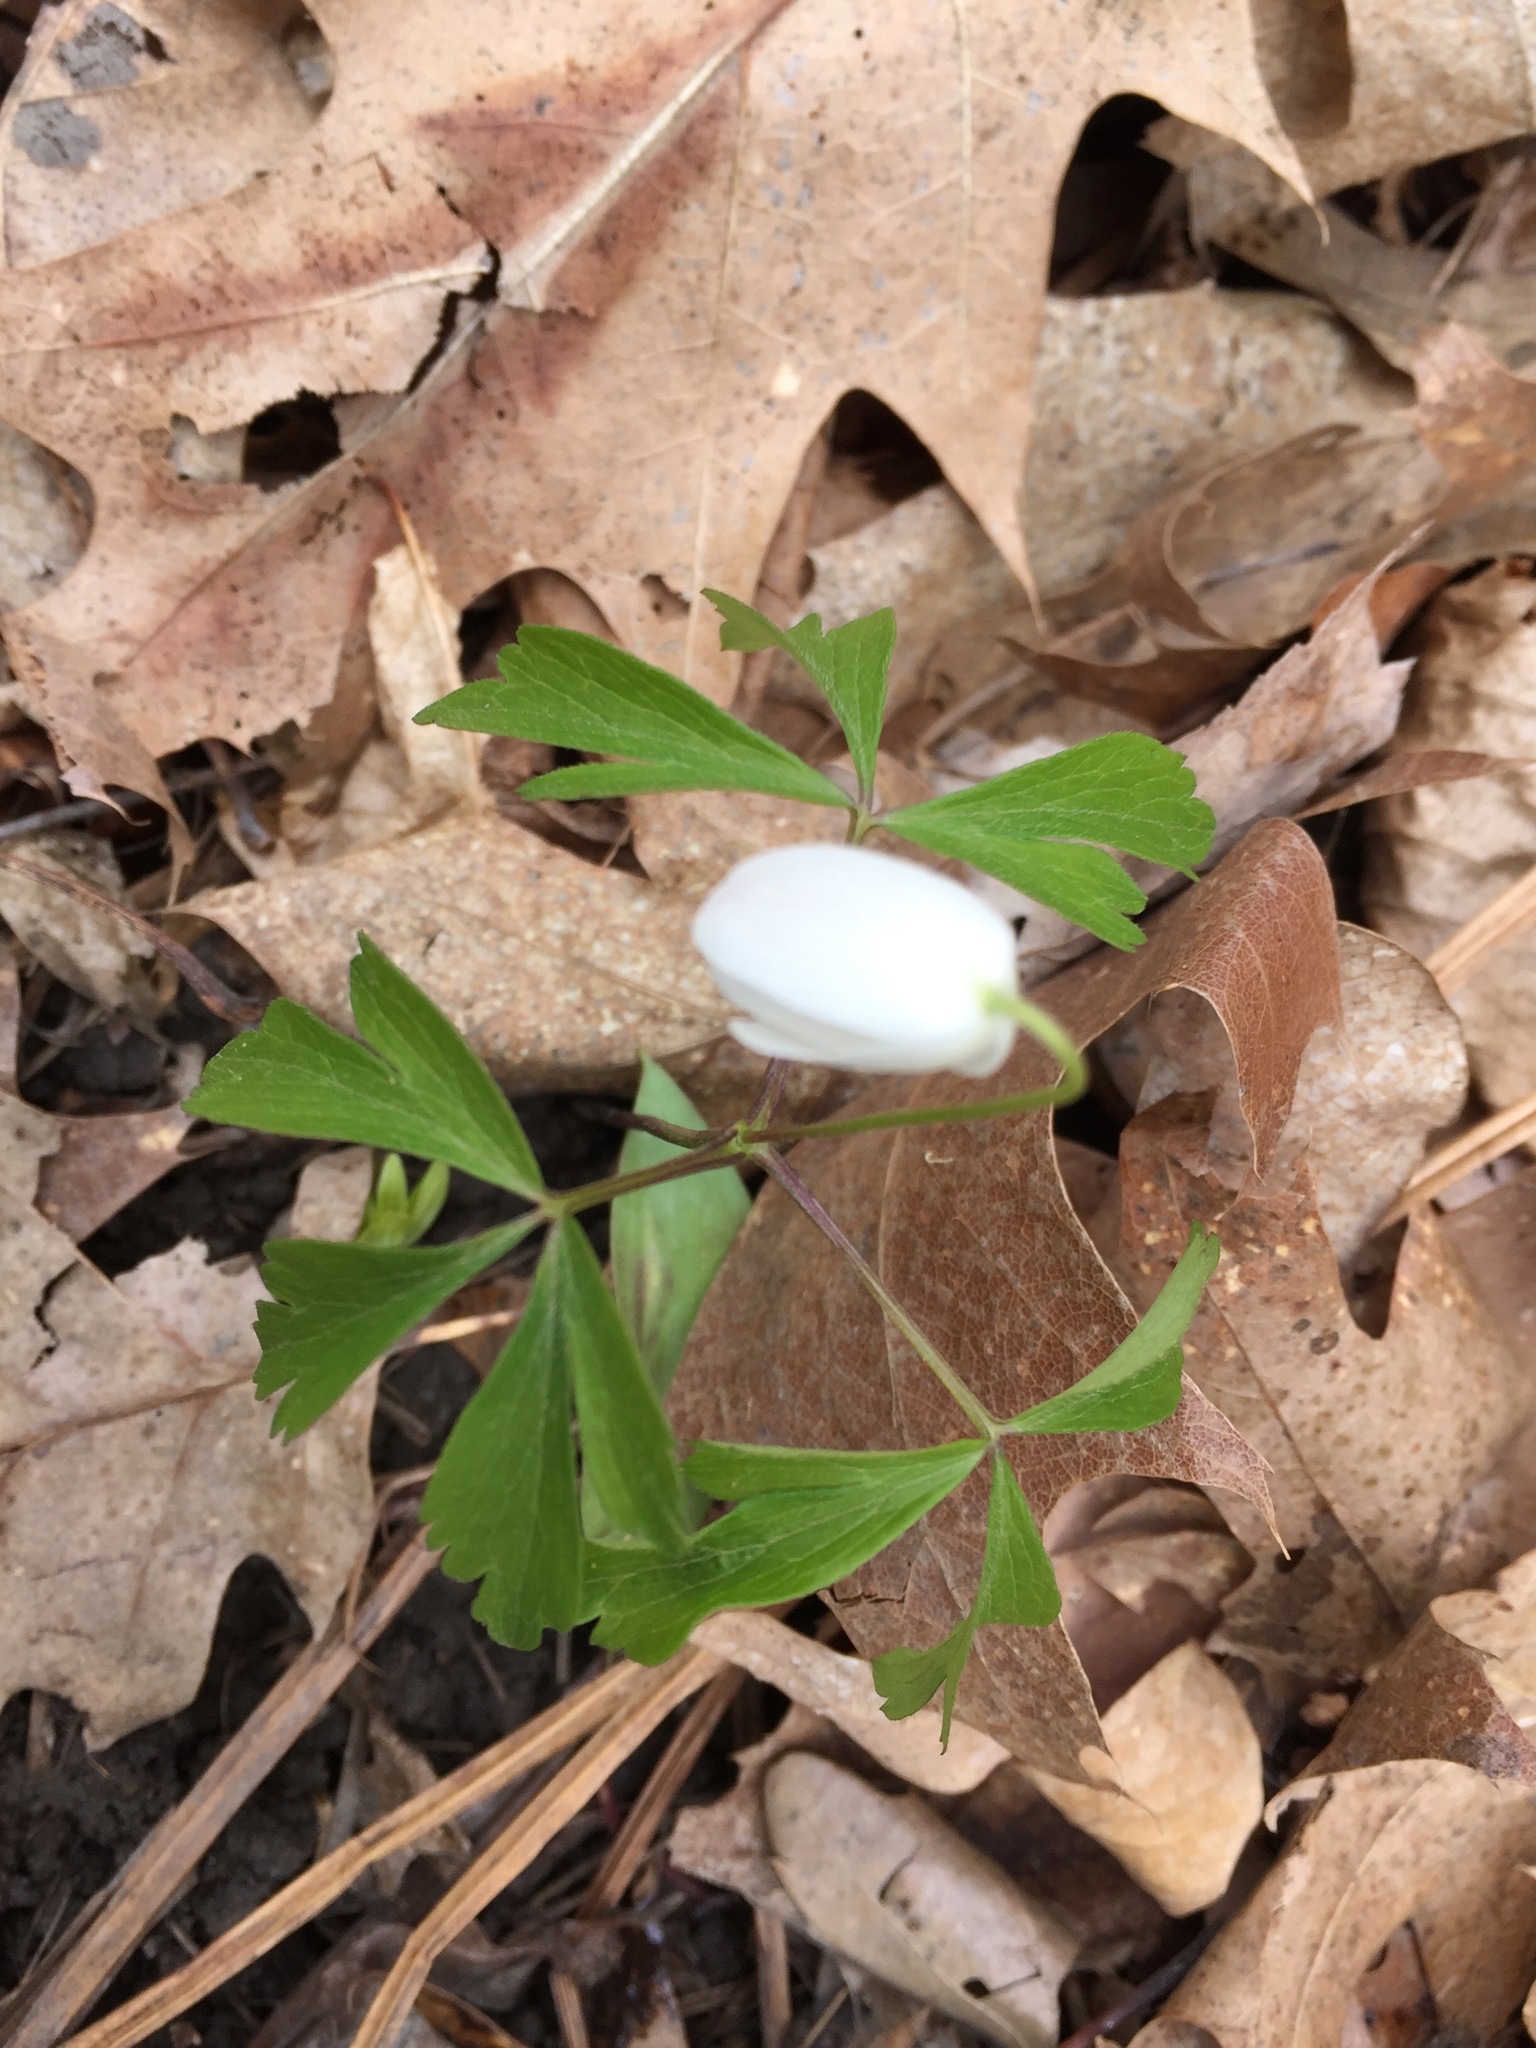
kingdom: Plantae
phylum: Tracheophyta
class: Magnoliopsida
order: Ranunculales
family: Ranunculaceae
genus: Anemone
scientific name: Anemone quinquefolia
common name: Wood anemone
